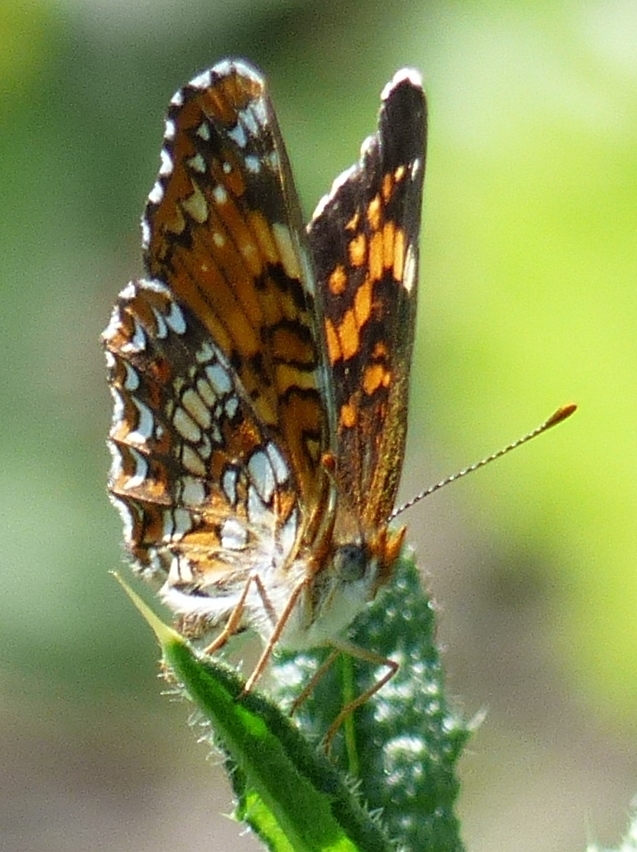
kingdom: Animalia
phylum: Arthropoda
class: Insecta
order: Lepidoptera
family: Nymphalidae
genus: Chlosyne
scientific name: Chlosyne harrisii
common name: Harris's checkerspot
